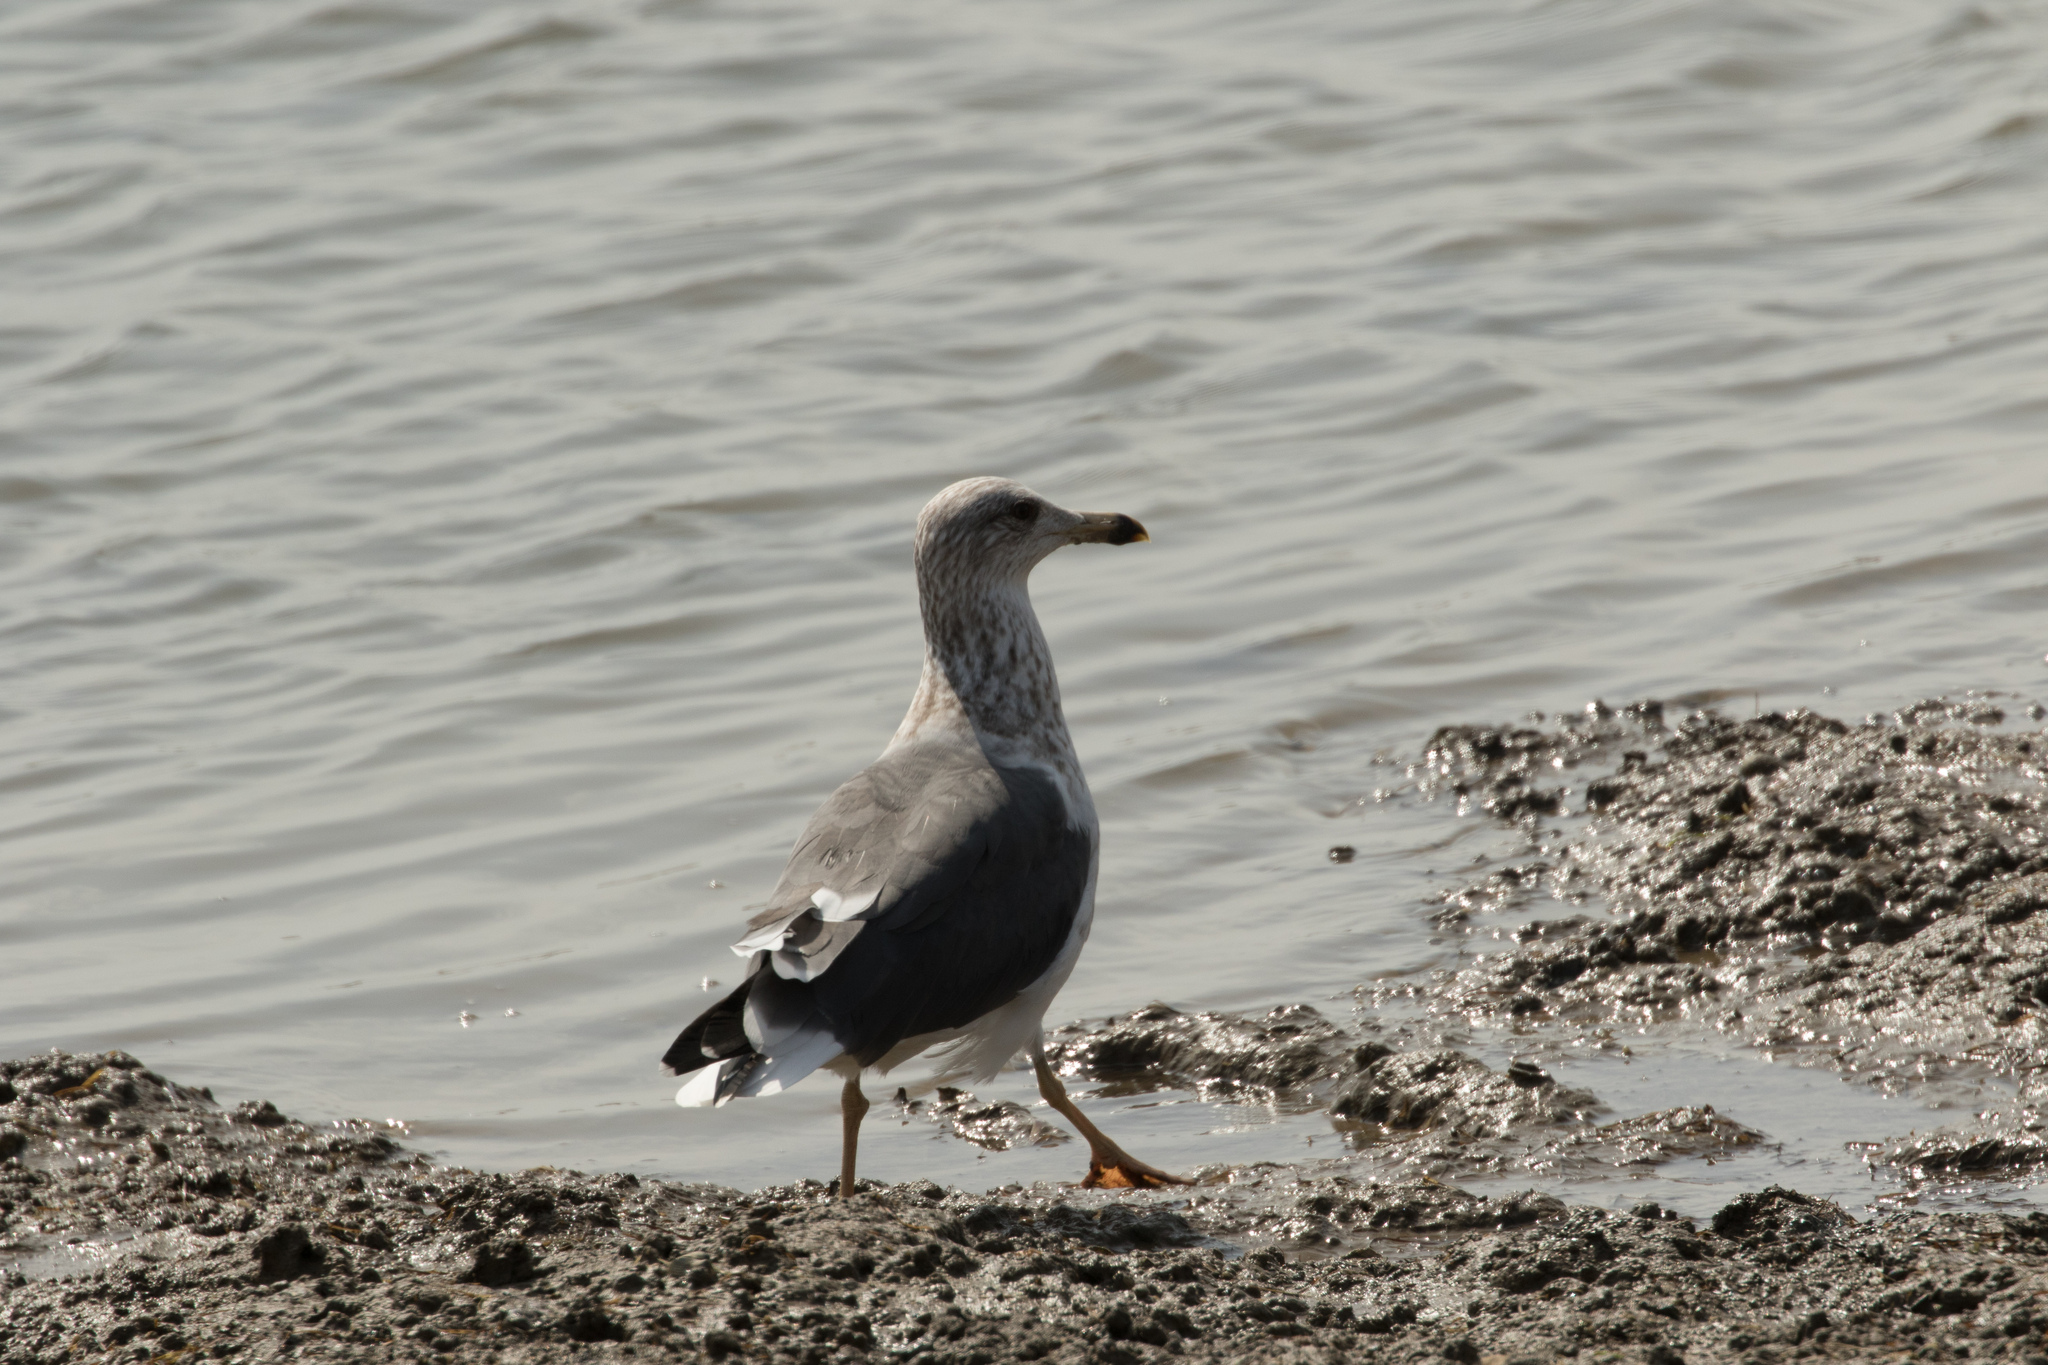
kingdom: Animalia
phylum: Chordata
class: Aves
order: Charadriiformes
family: Laridae
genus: Larus
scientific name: Larus fuscus
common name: Lesser black-backed gull
